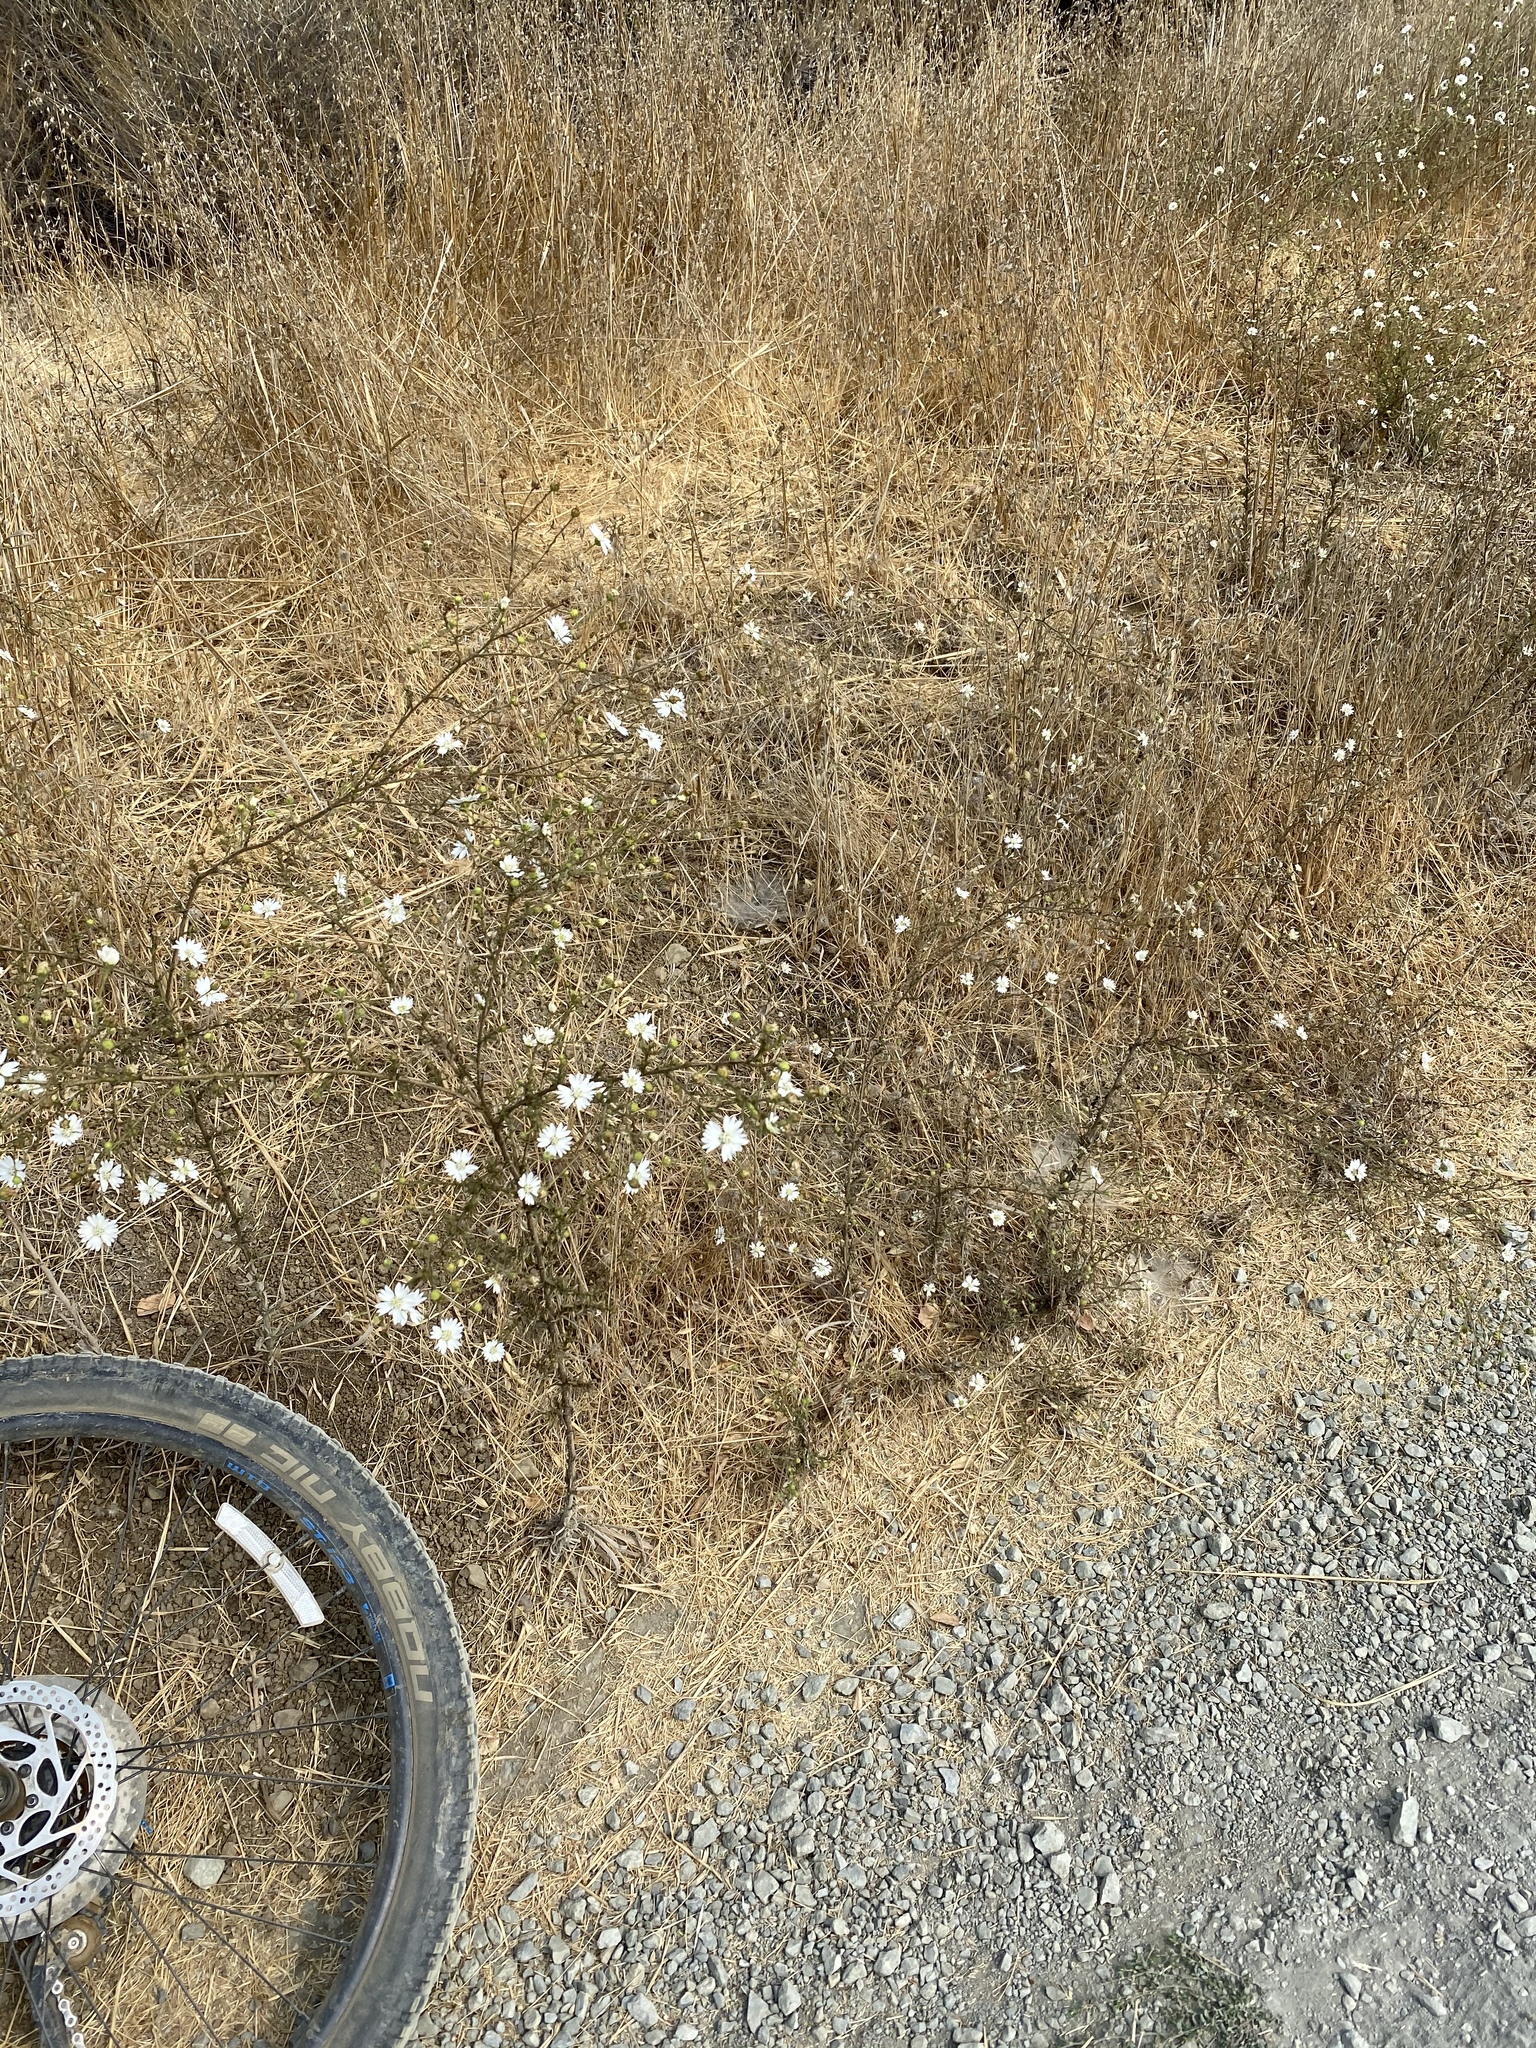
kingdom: Plantae
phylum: Tracheophyta
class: Magnoliopsida
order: Asterales
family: Asteraceae
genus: Hemizonia
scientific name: Hemizonia congesta
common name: Hayfield tarweed
